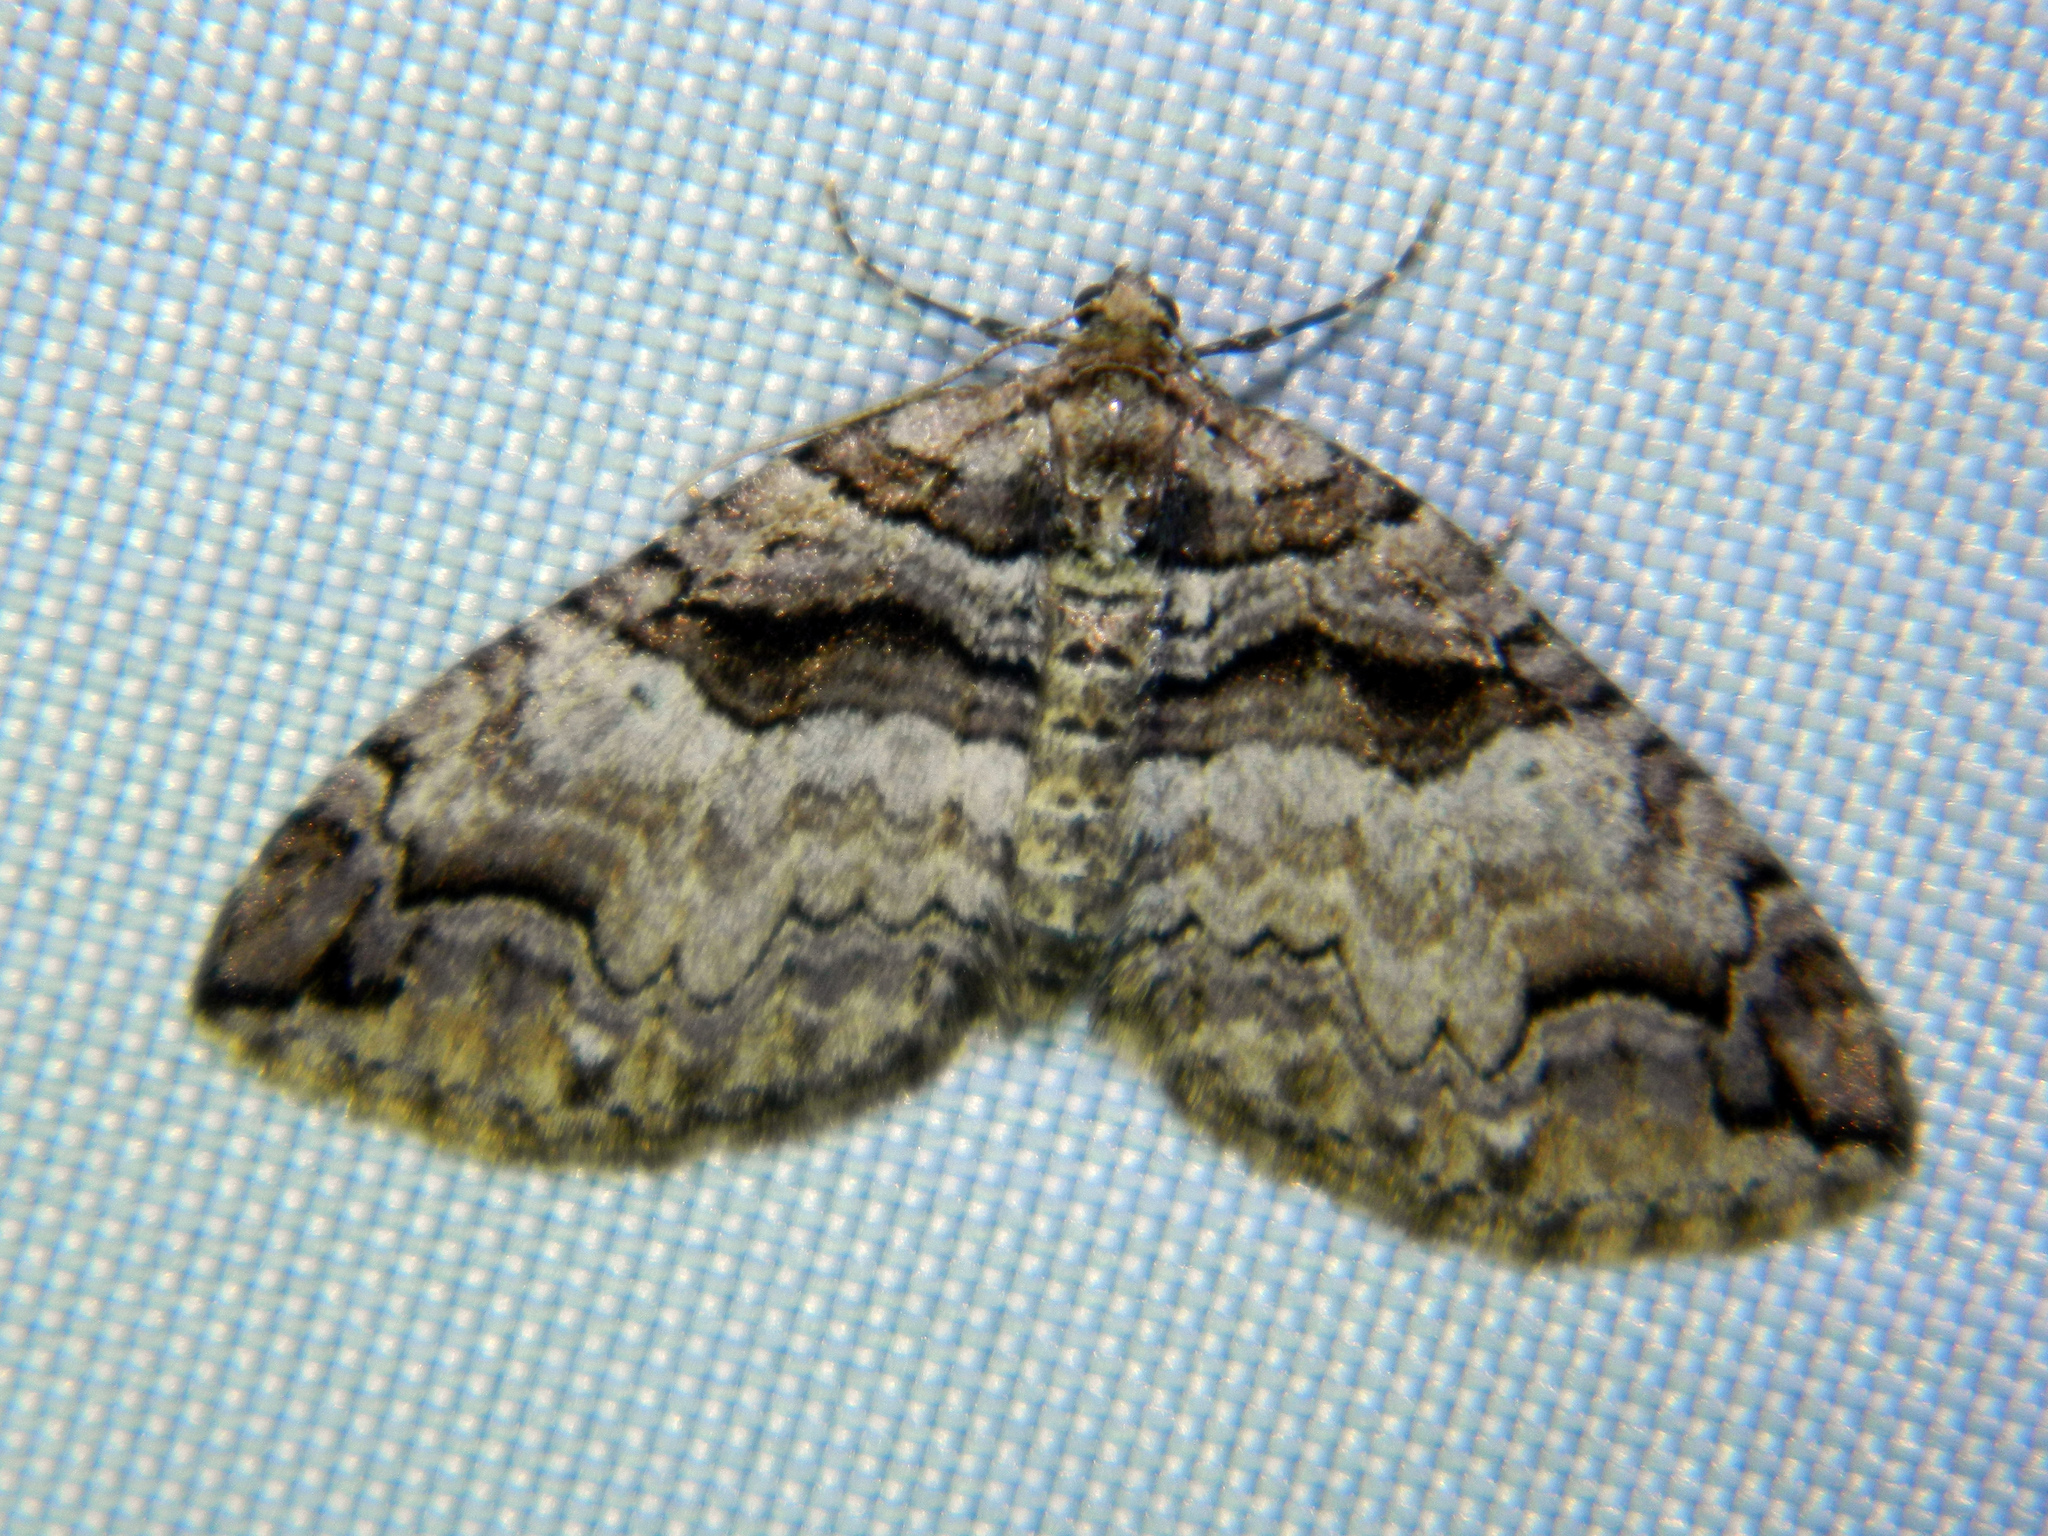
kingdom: Animalia
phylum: Arthropoda
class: Insecta
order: Lepidoptera
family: Geometridae
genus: Anticlea
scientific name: Anticlea vasiliata
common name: Variable carpet
